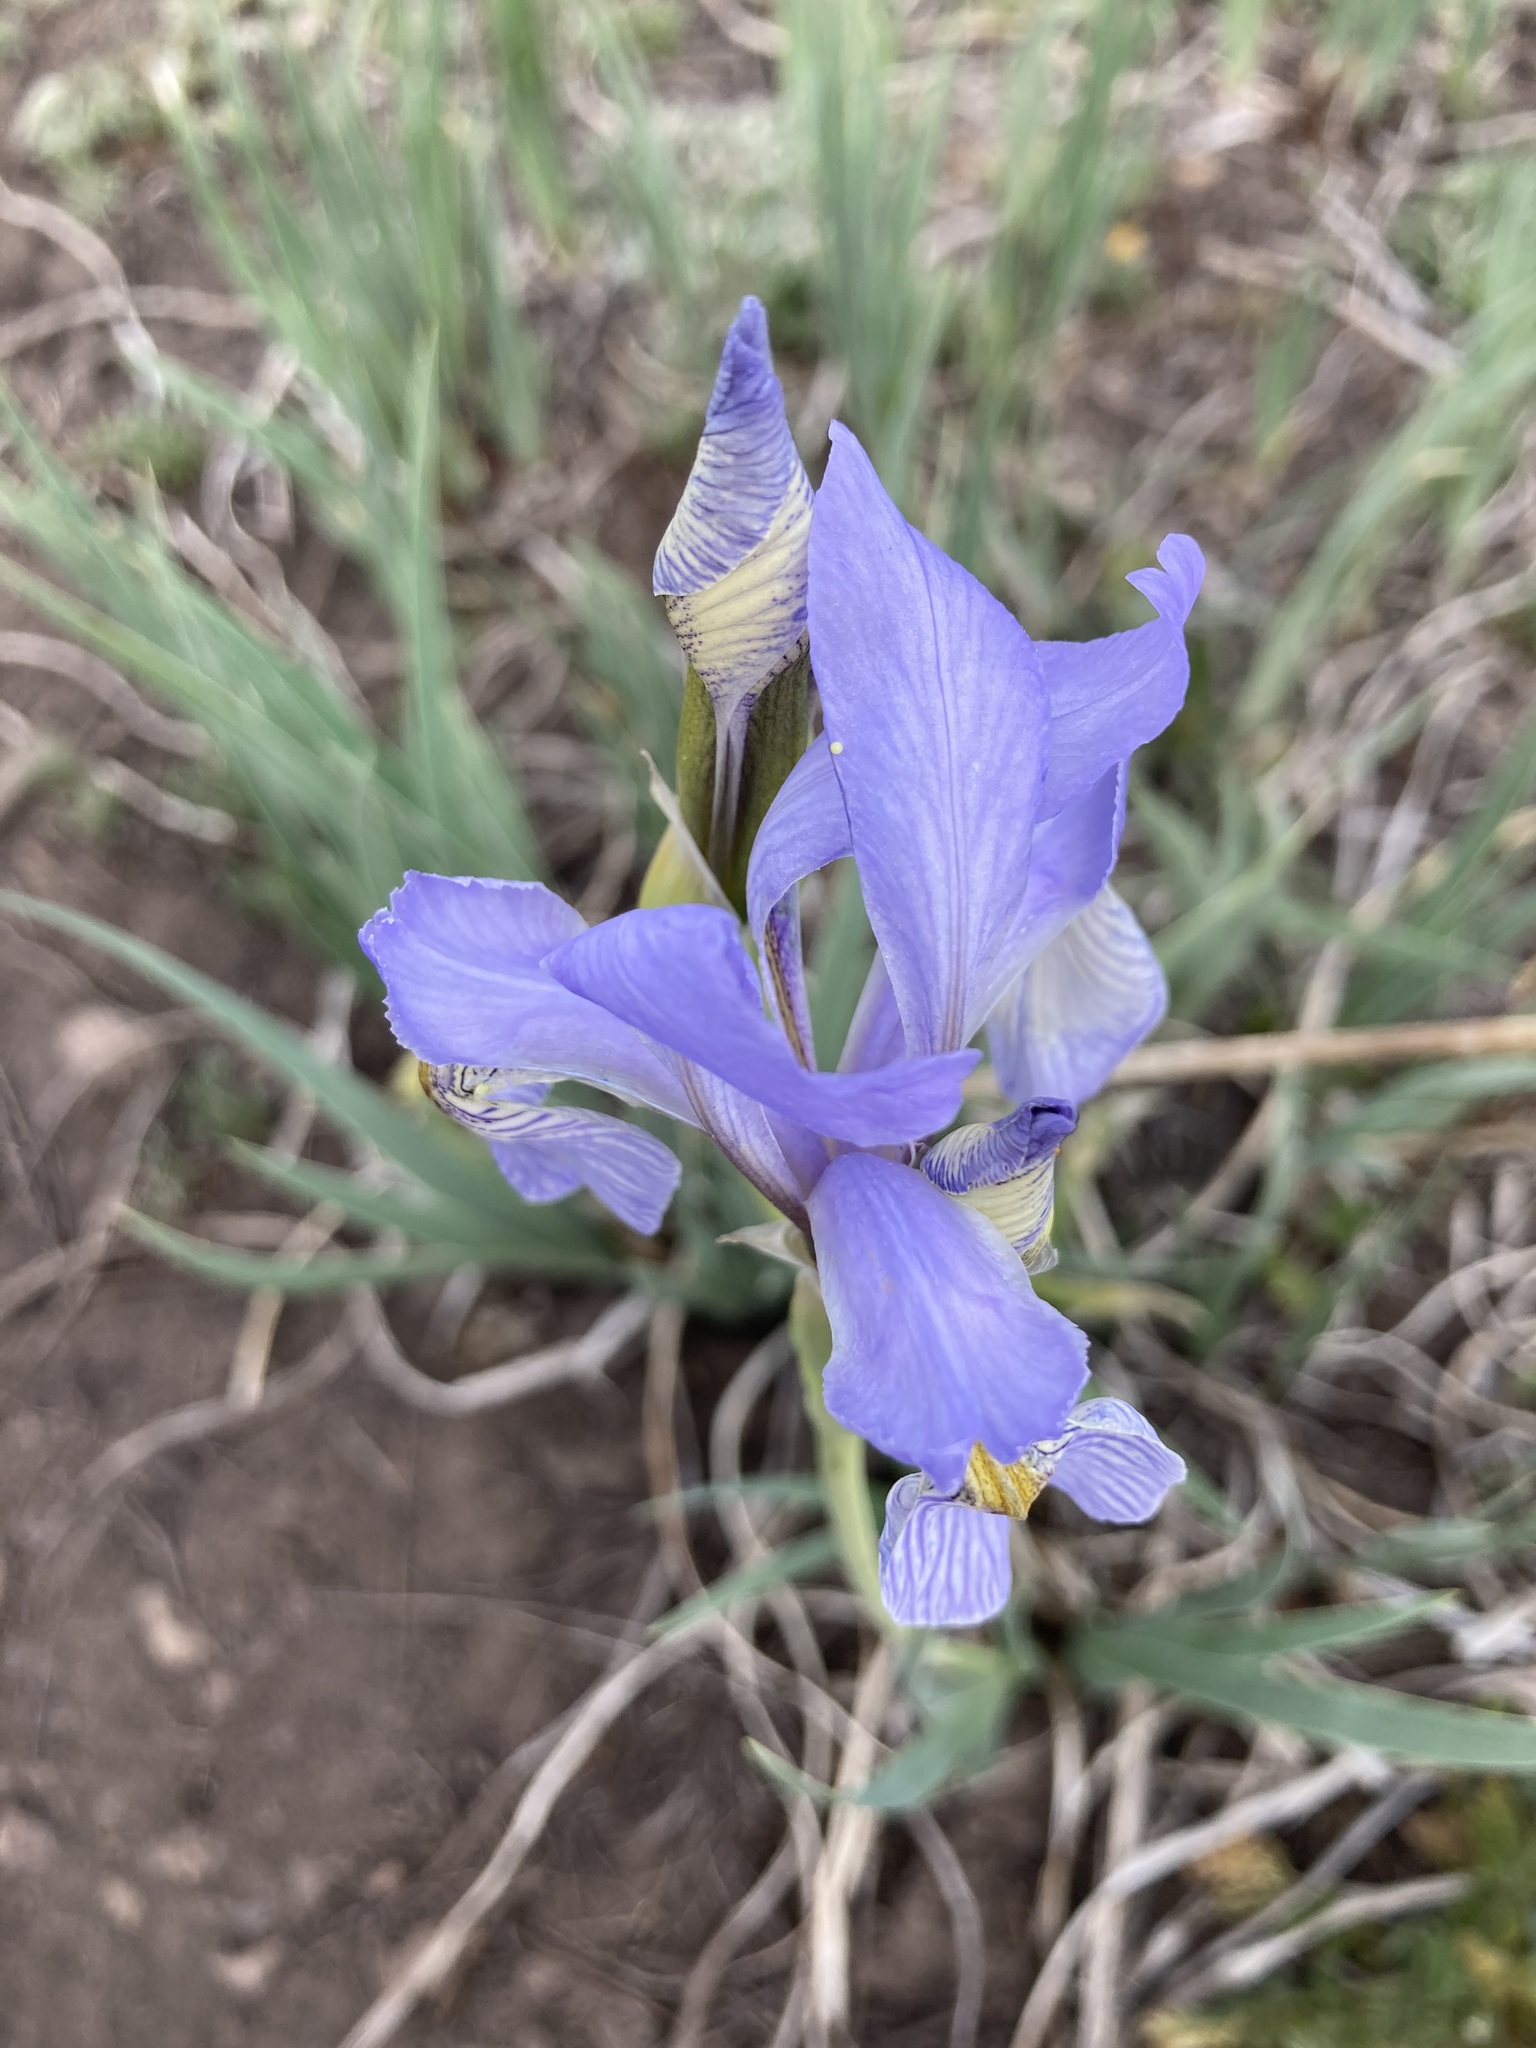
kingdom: Plantae
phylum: Tracheophyta
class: Liliopsida
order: Asparagales
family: Iridaceae
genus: Iris
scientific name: Iris missouriensis
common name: Rocky mountain iris
